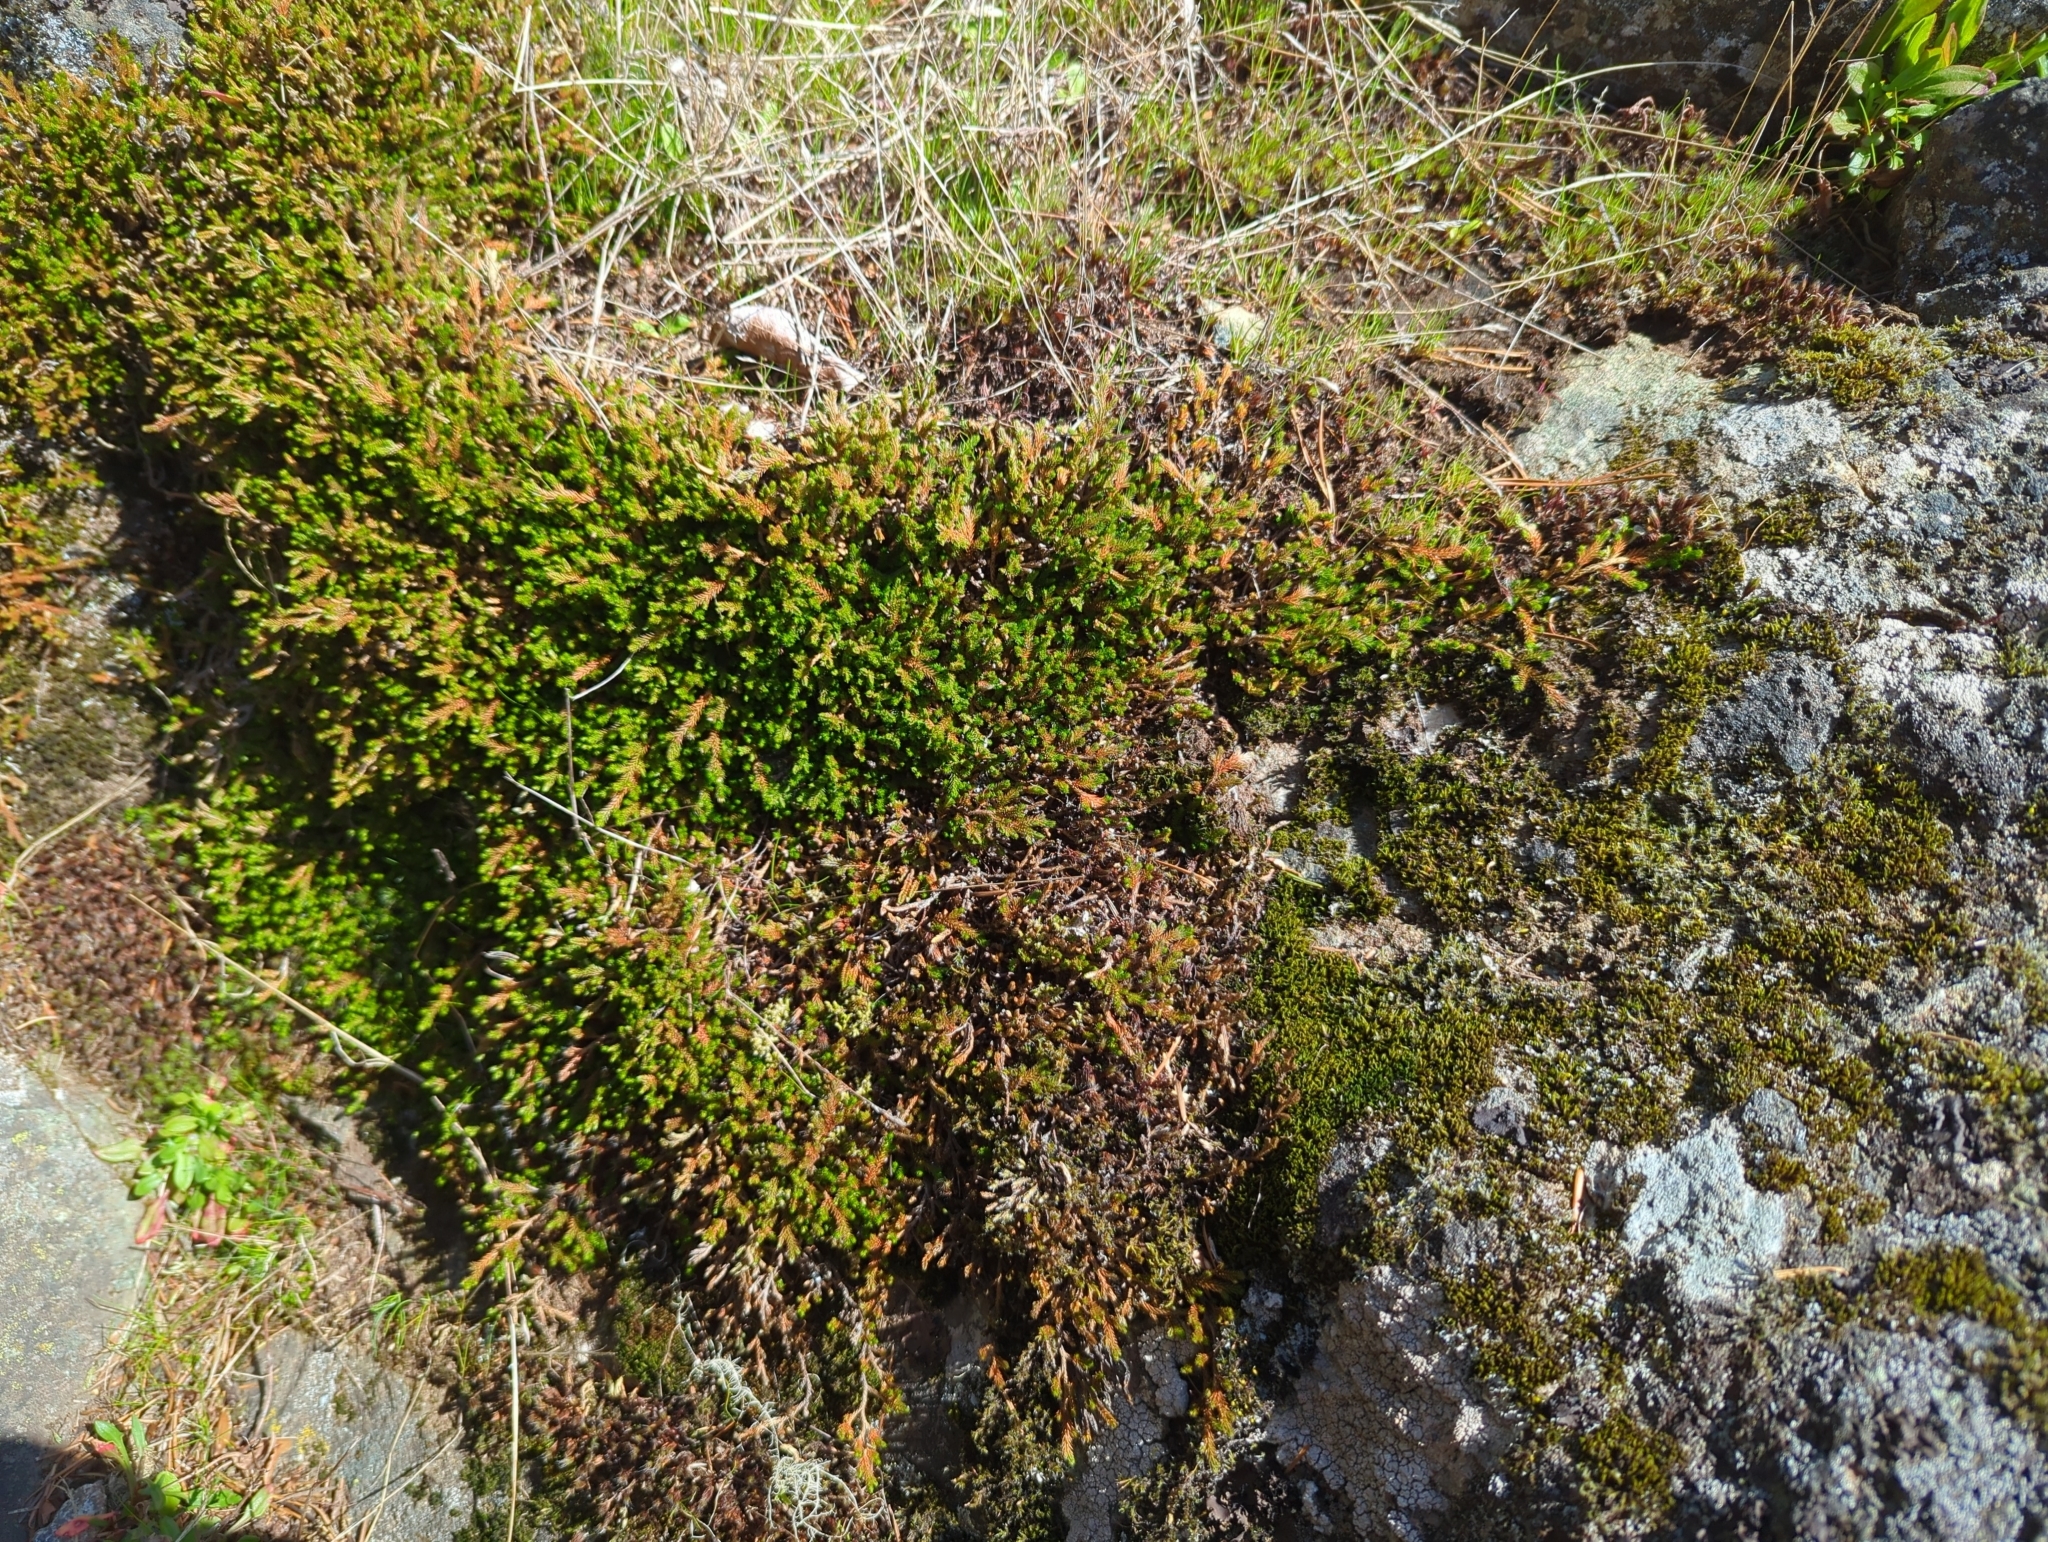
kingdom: Plantae
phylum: Tracheophyta
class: Lycopodiopsida
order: Selaginellales
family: Selaginellaceae
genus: Selaginella
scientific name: Selaginella wallacei
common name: Wallace's selaginella
